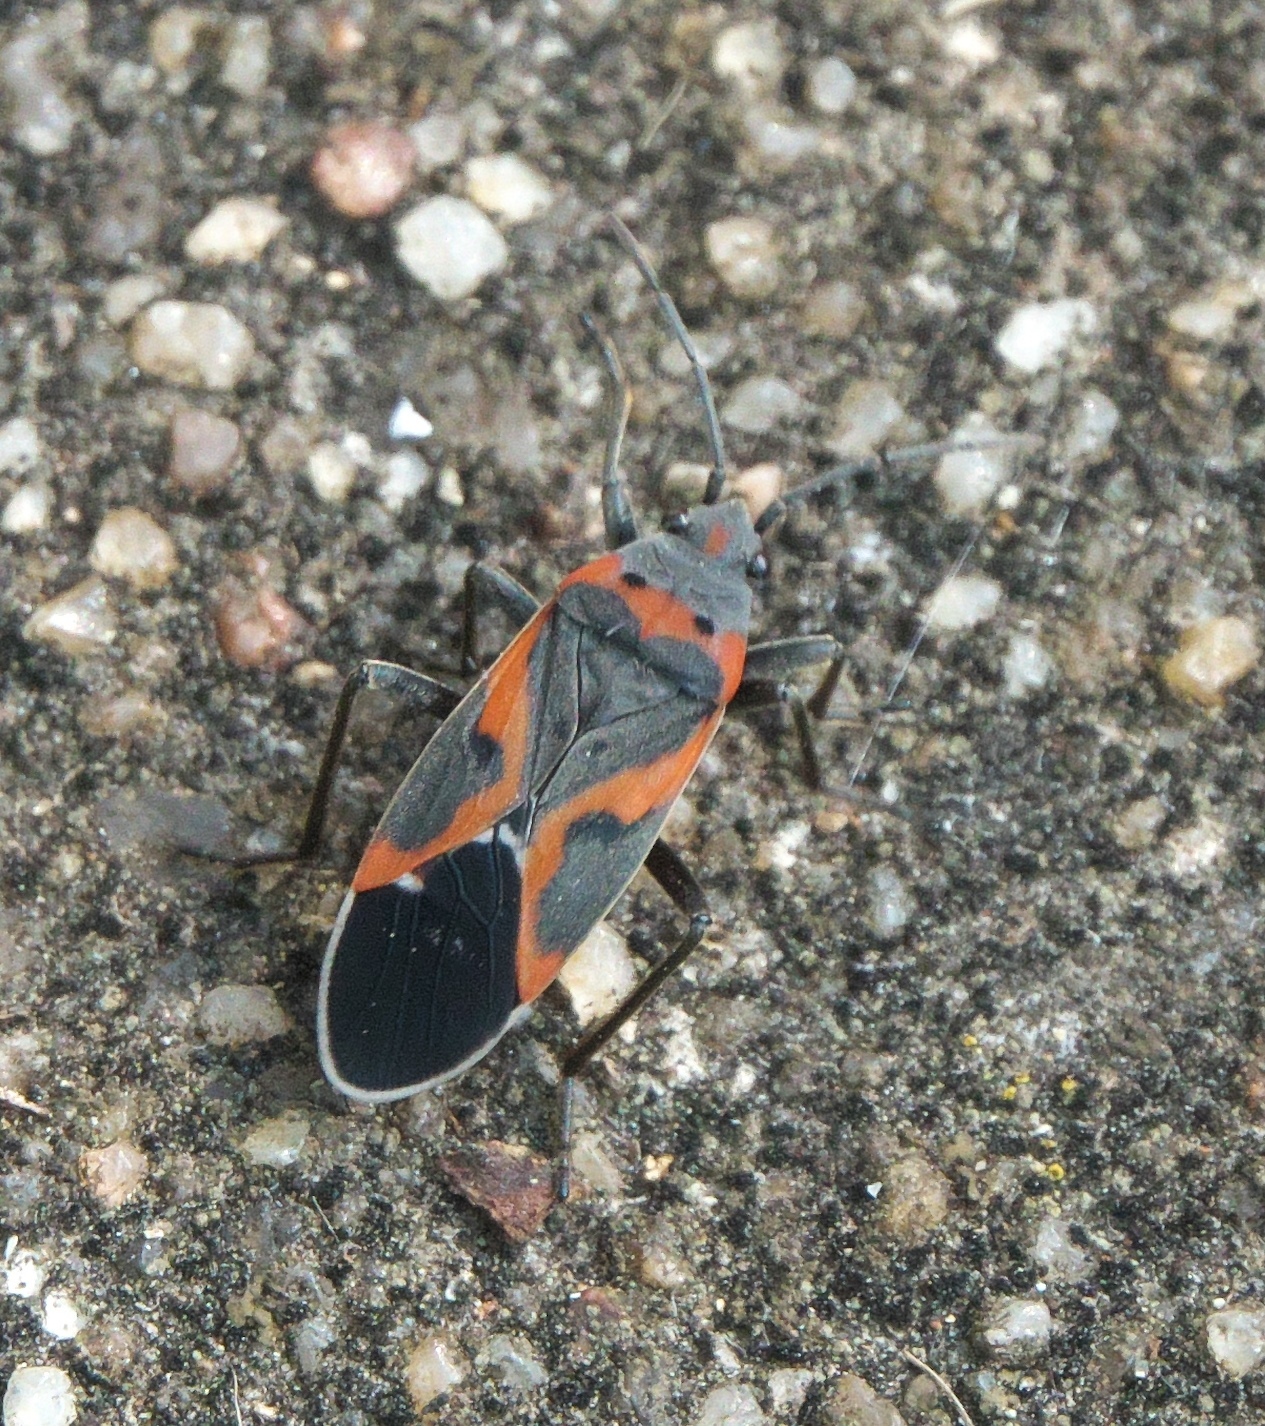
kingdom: Animalia
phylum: Arthropoda
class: Insecta
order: Hemiptera
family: Lygaeidae
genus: Lygaeus
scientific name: Lygaeus kalmii
